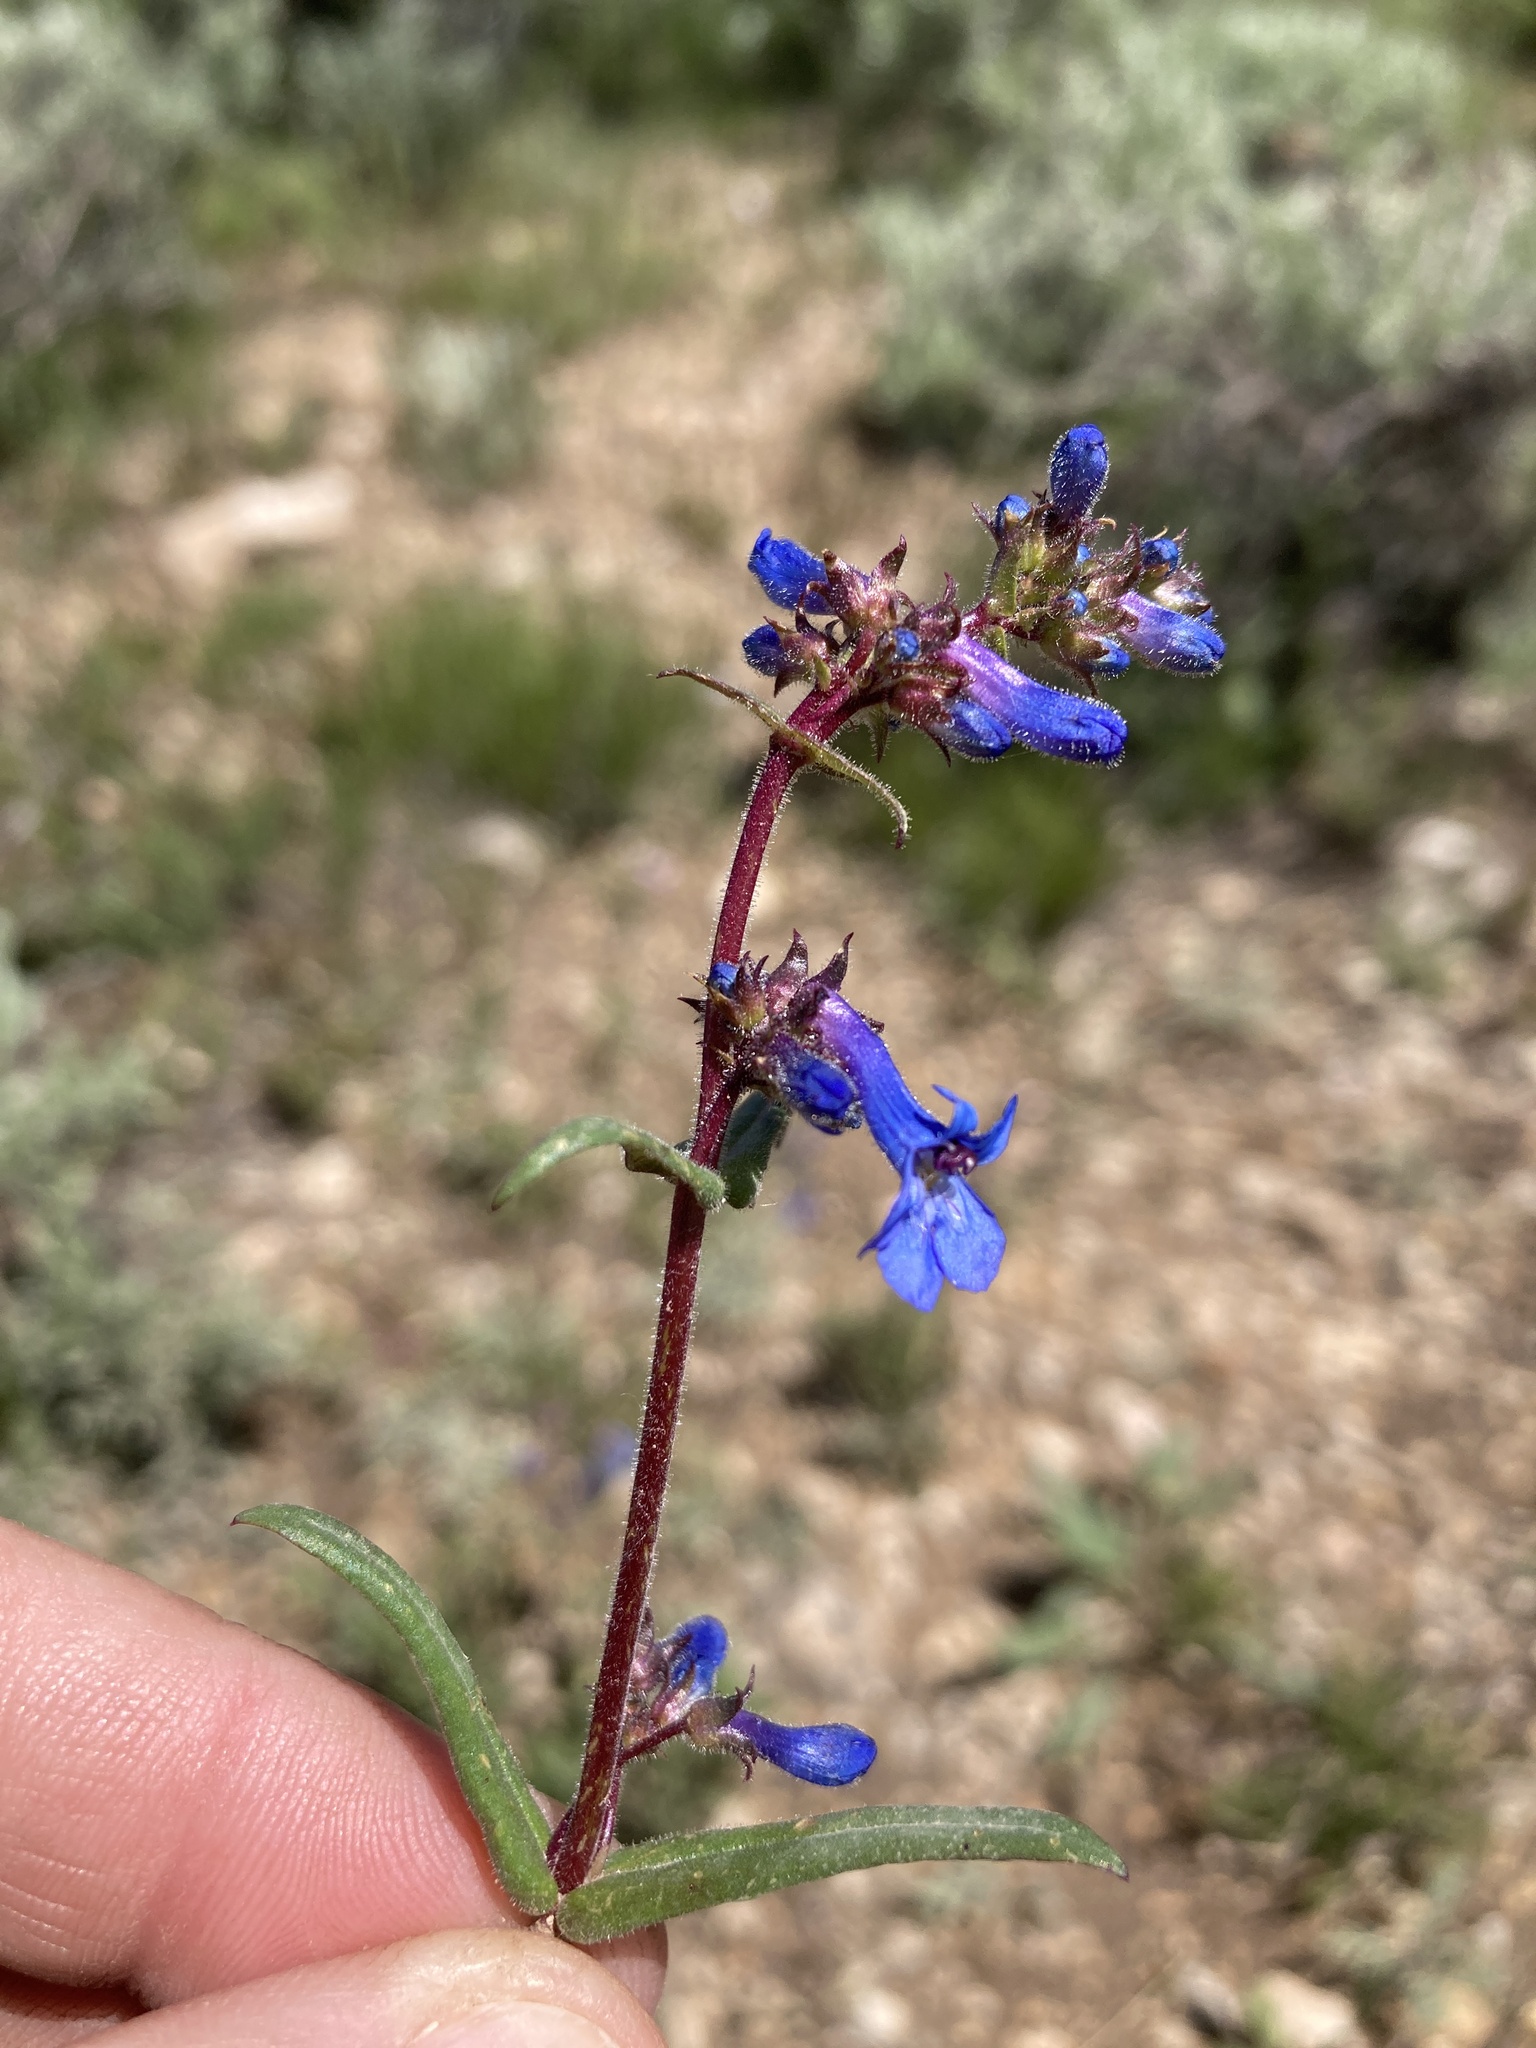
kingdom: Plantae
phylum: Tracheophyta
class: Magnoliopsida
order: Lamiales
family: Plantaginaceae
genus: Penstemon
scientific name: Penstemon radicosus
